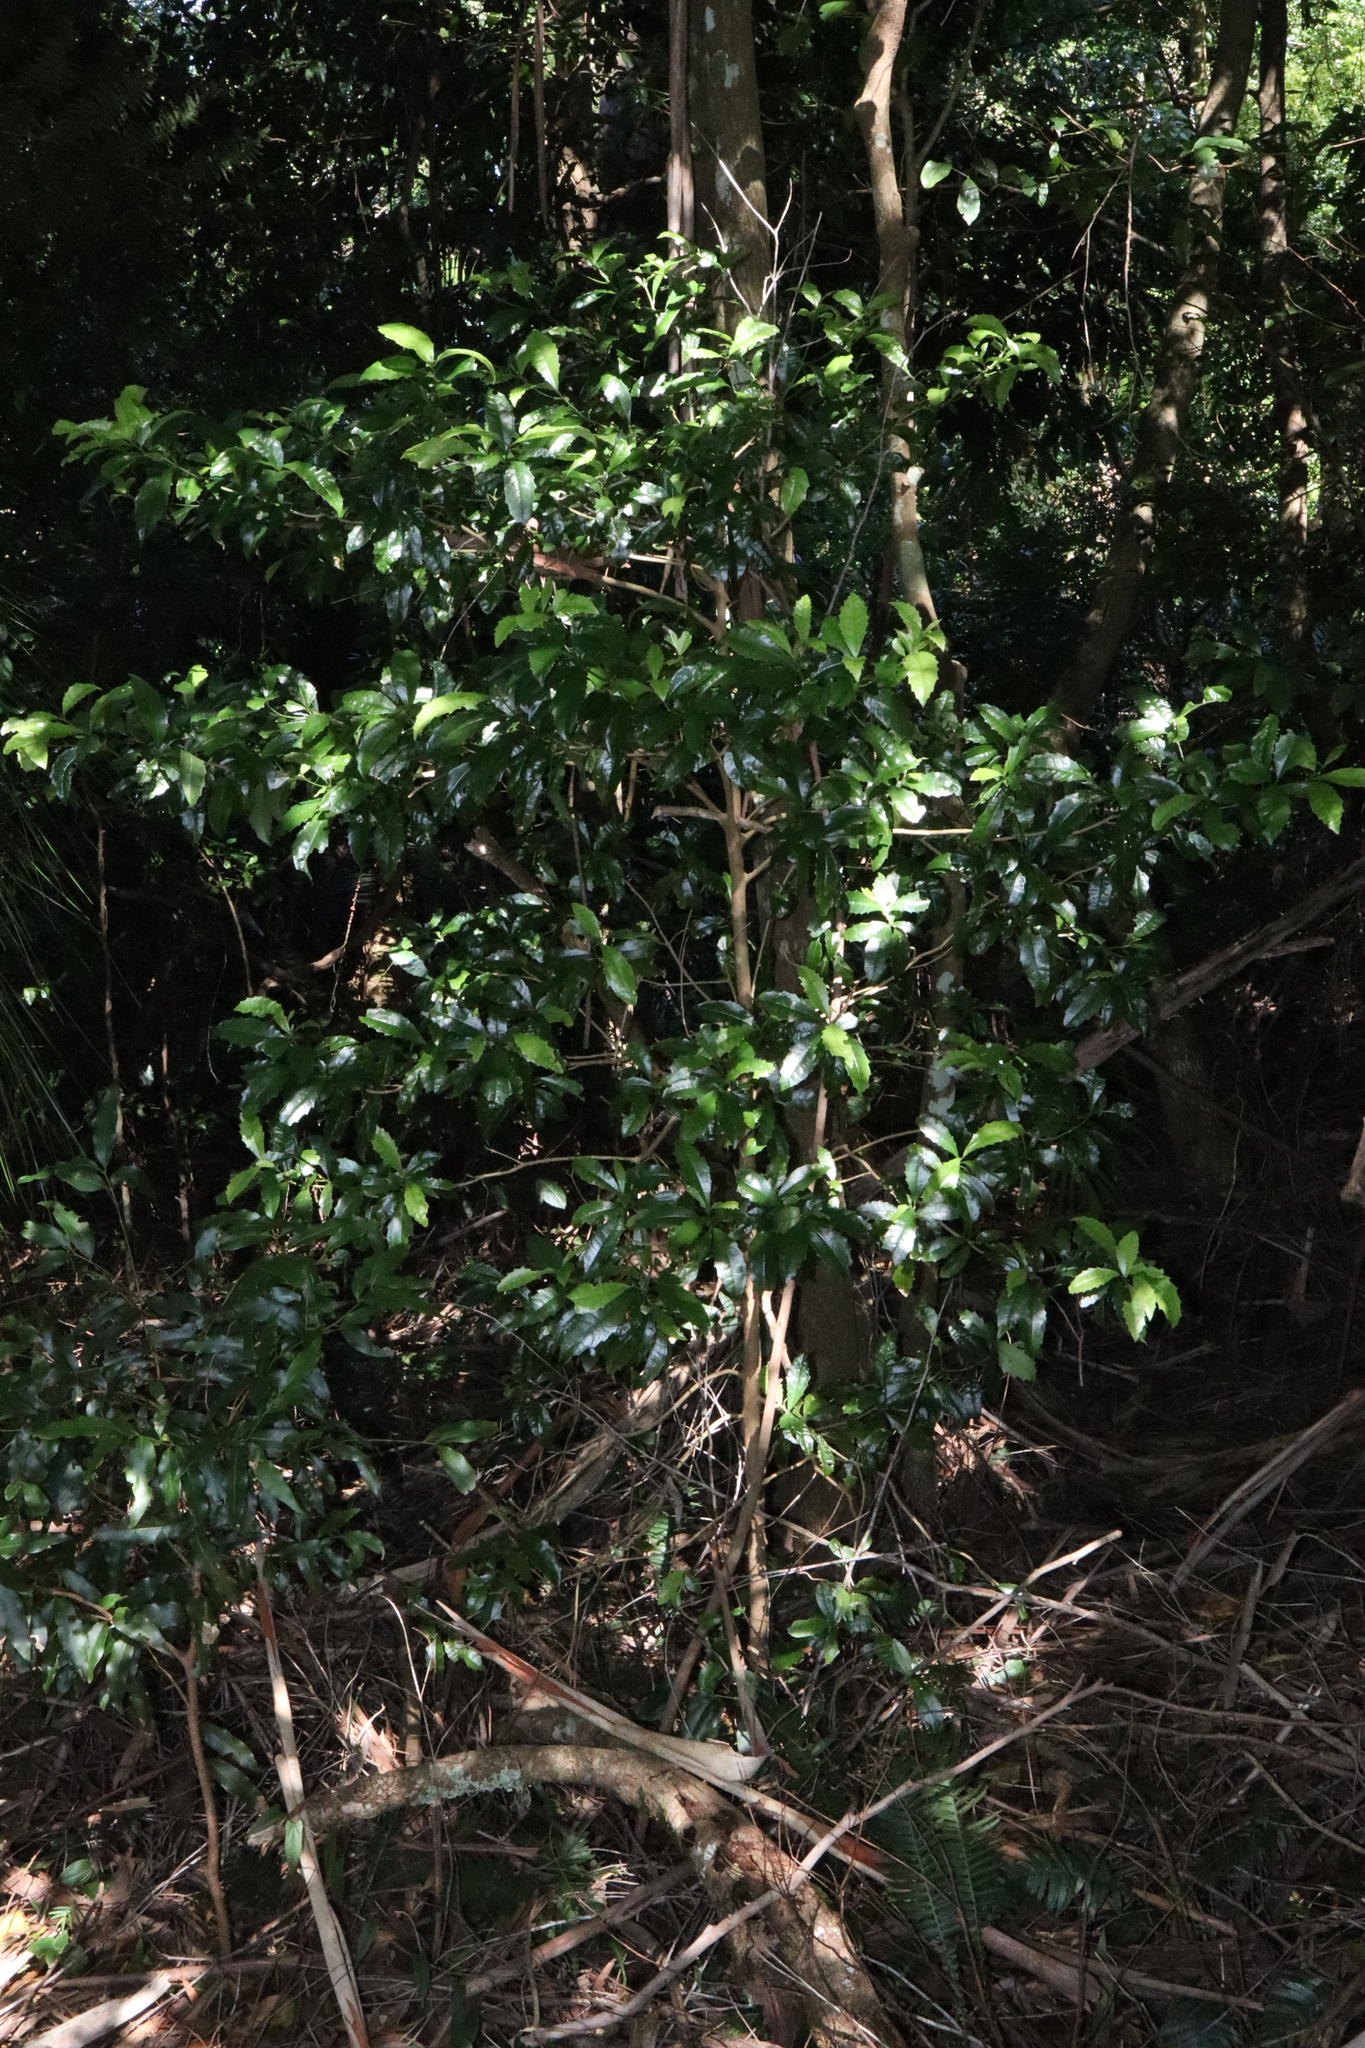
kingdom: Plantae
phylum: Tracheophyta
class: Magnoliopsida
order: Escalloniales
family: Escalloniaceae
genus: Polyosma
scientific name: Polyosma cunninghamii
